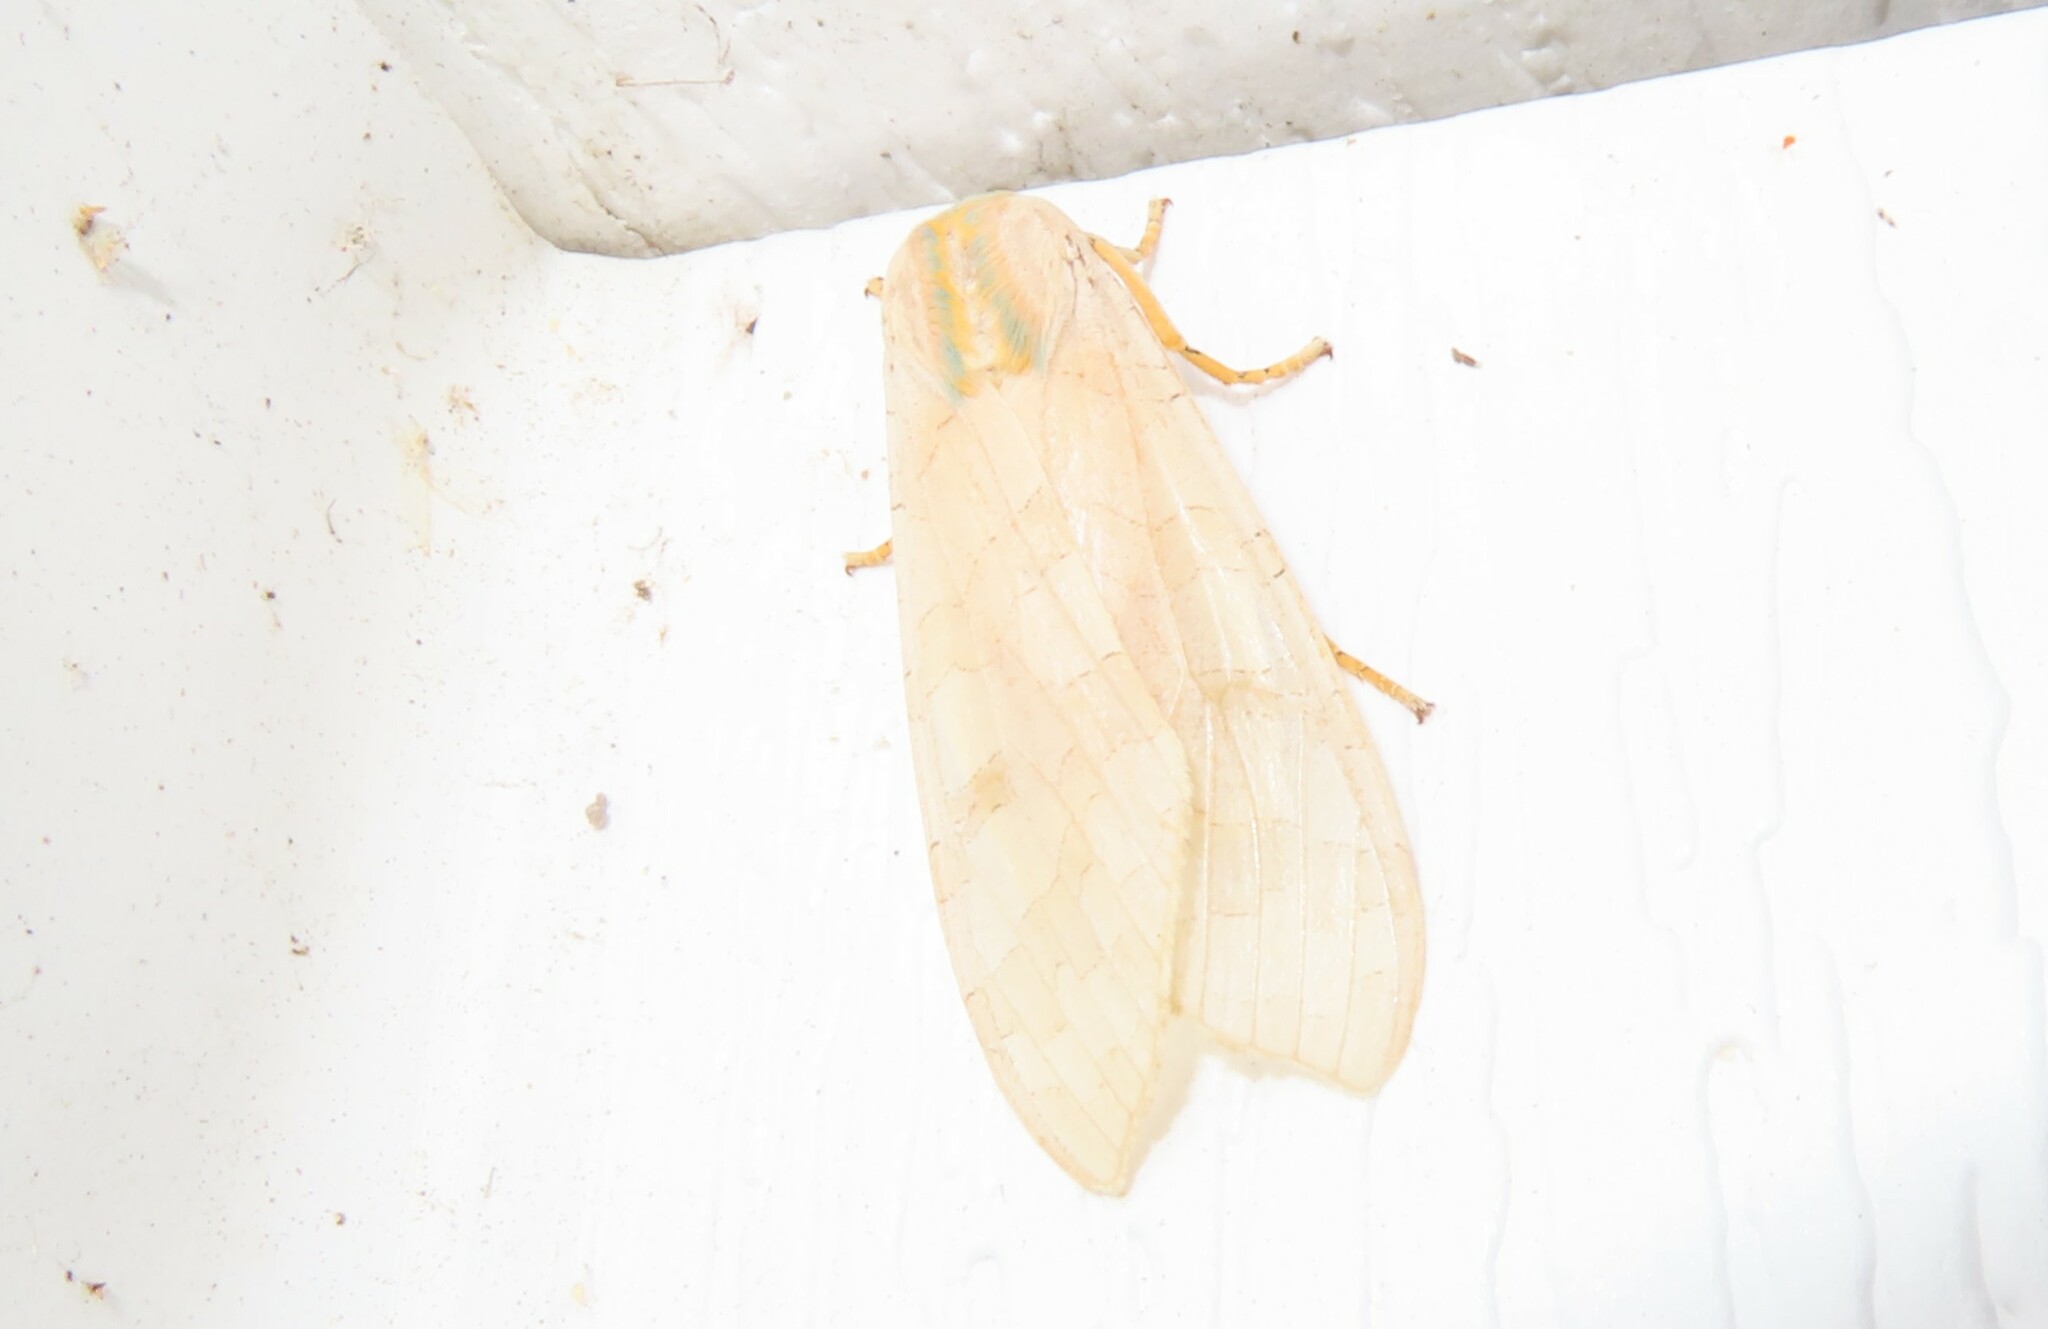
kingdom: Animalia
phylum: Arthropoda
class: Insecta
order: Lepidoptera
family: Erebidae
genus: Halysidota
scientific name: Halysidota
